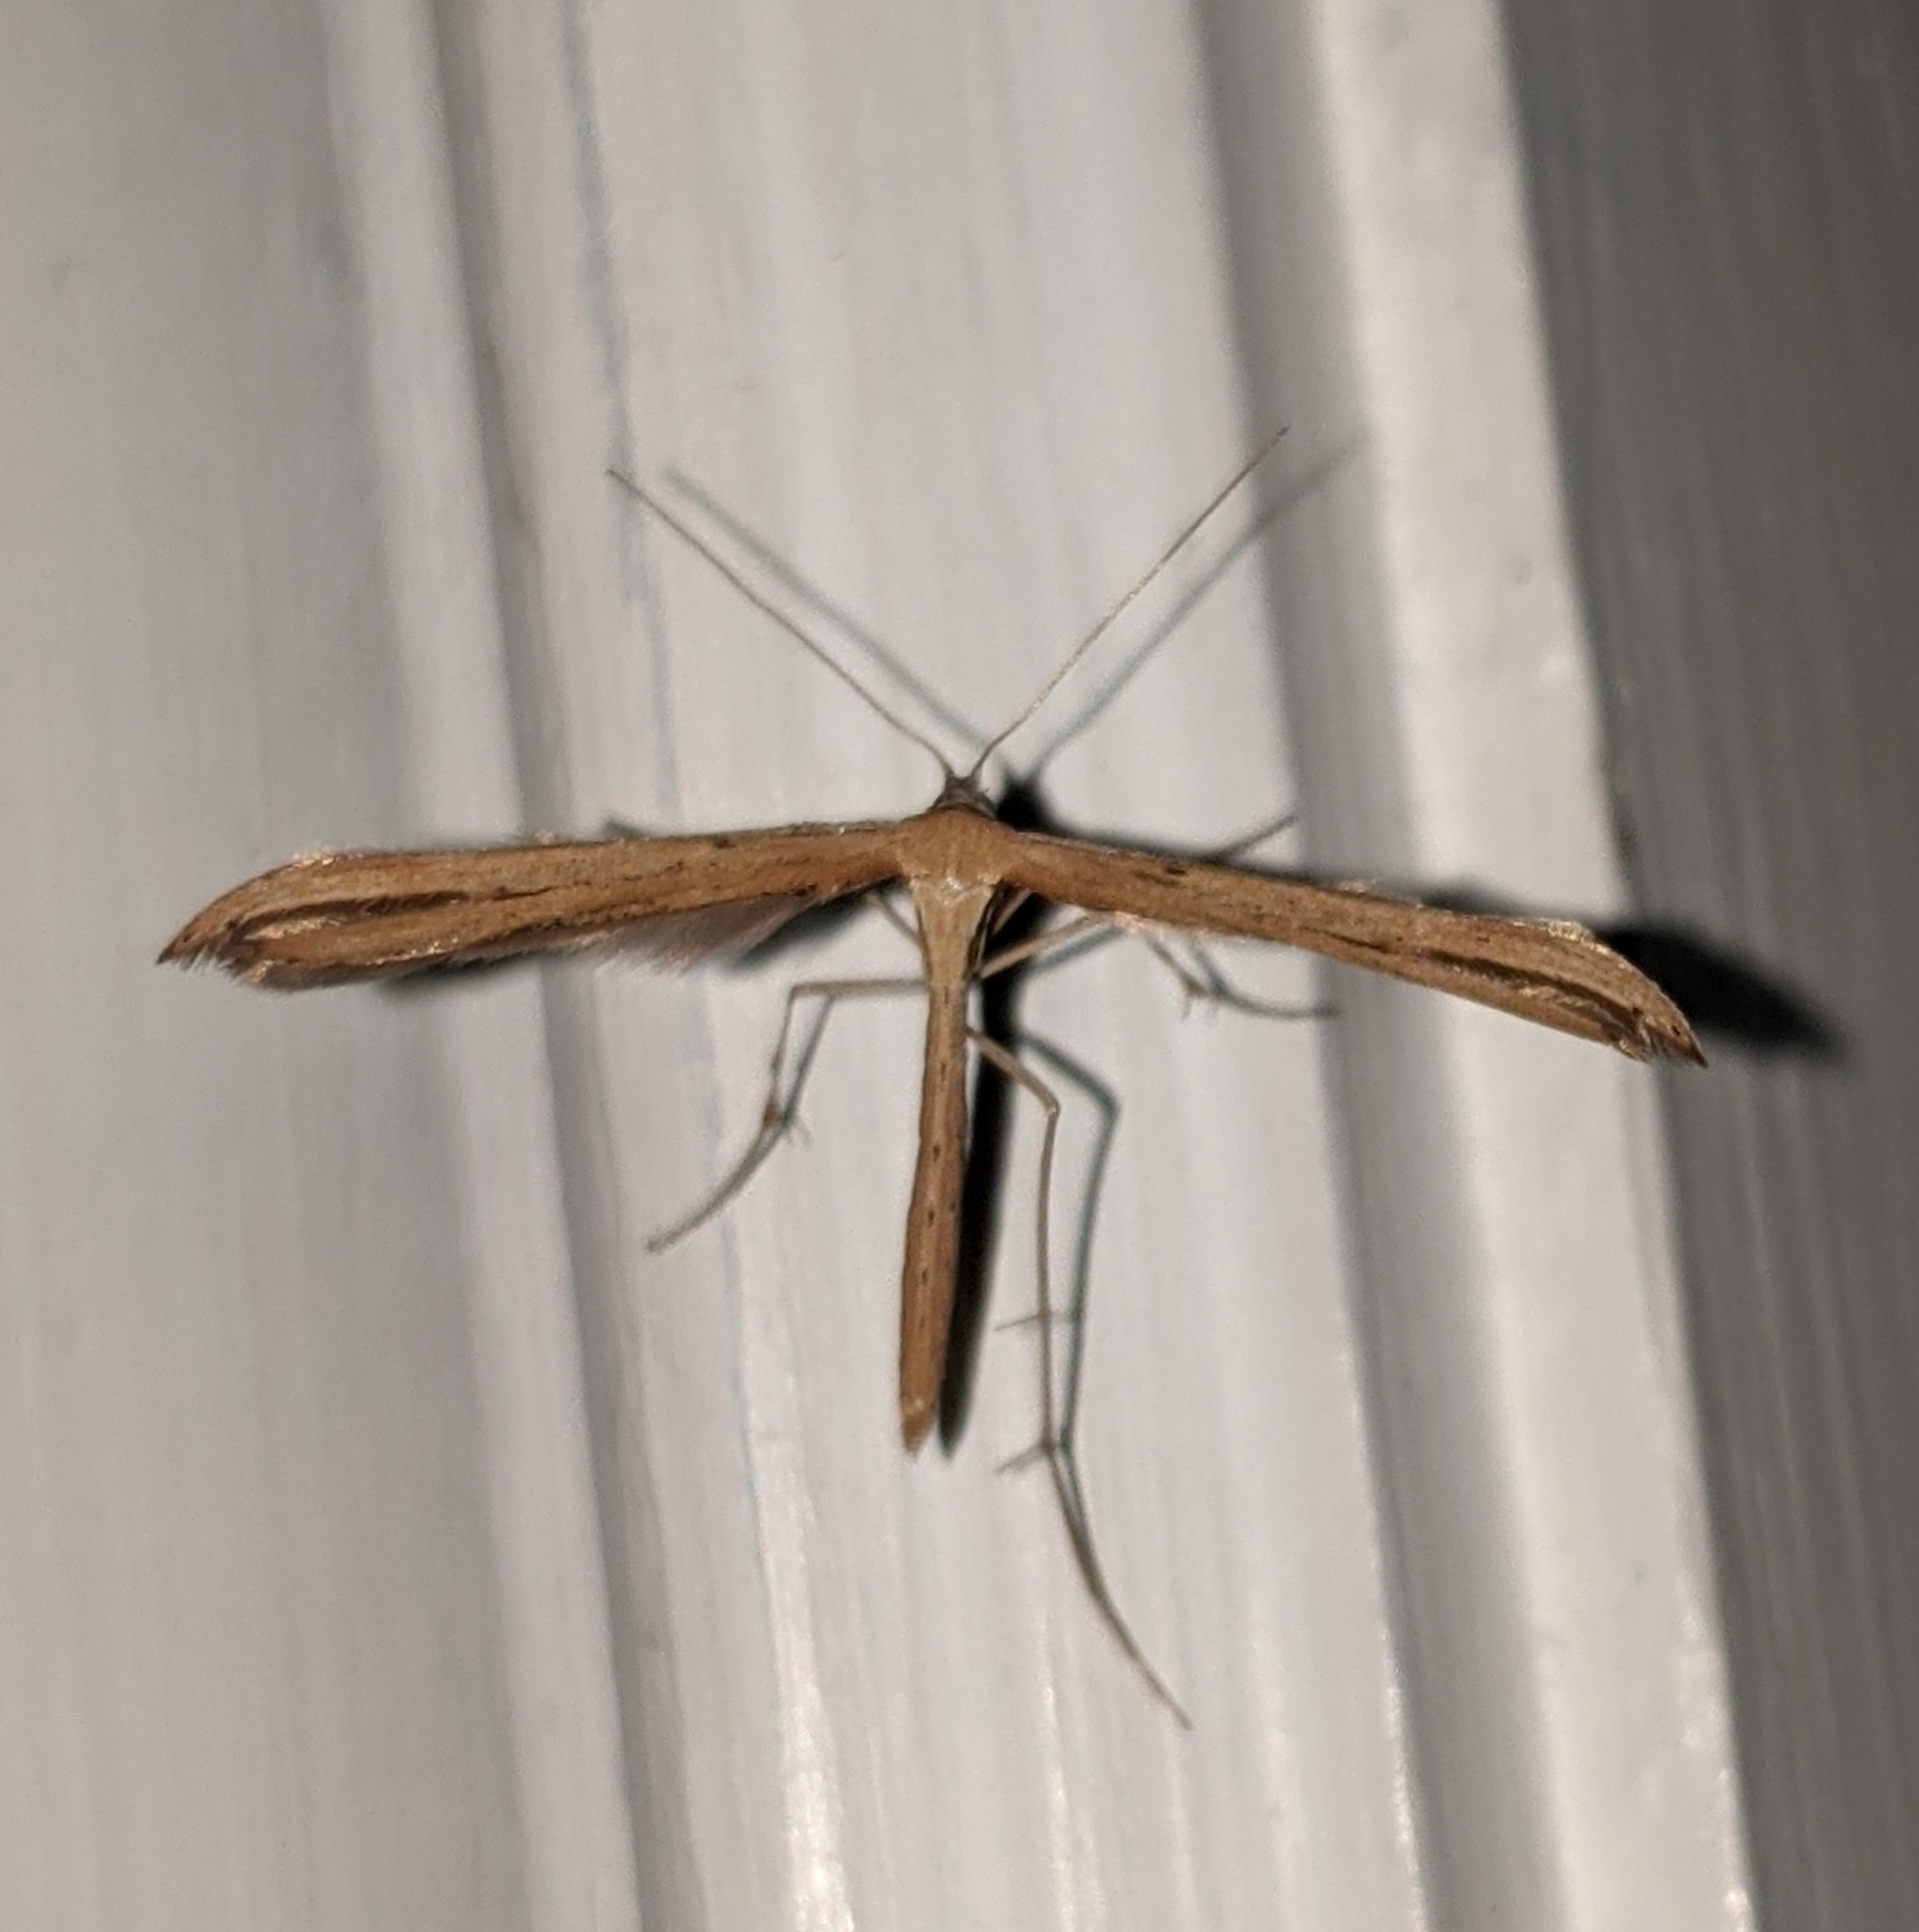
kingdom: Animalia
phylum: Arthropoda
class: Insecta
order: Lepidoptera
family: Pterophoridae
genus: Emmelina
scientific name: Emmelina monodactyla
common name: Common plume
